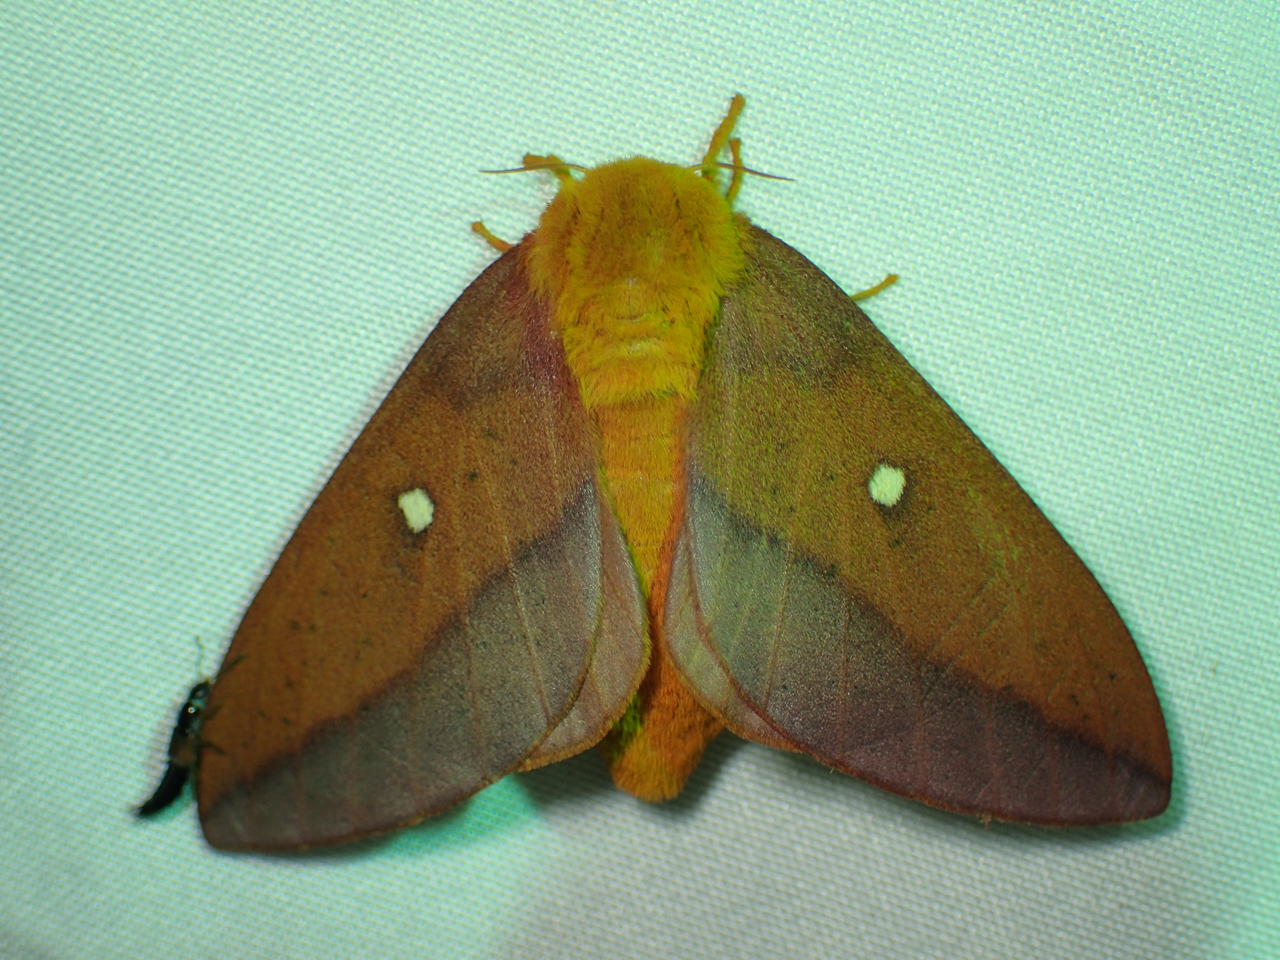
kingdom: Animalia
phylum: Arthropoda
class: Insecta
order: Lepidoptera
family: Saturniidae
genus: Anisota
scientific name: Anisota virginiensis
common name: Pink striped oakworm moth
